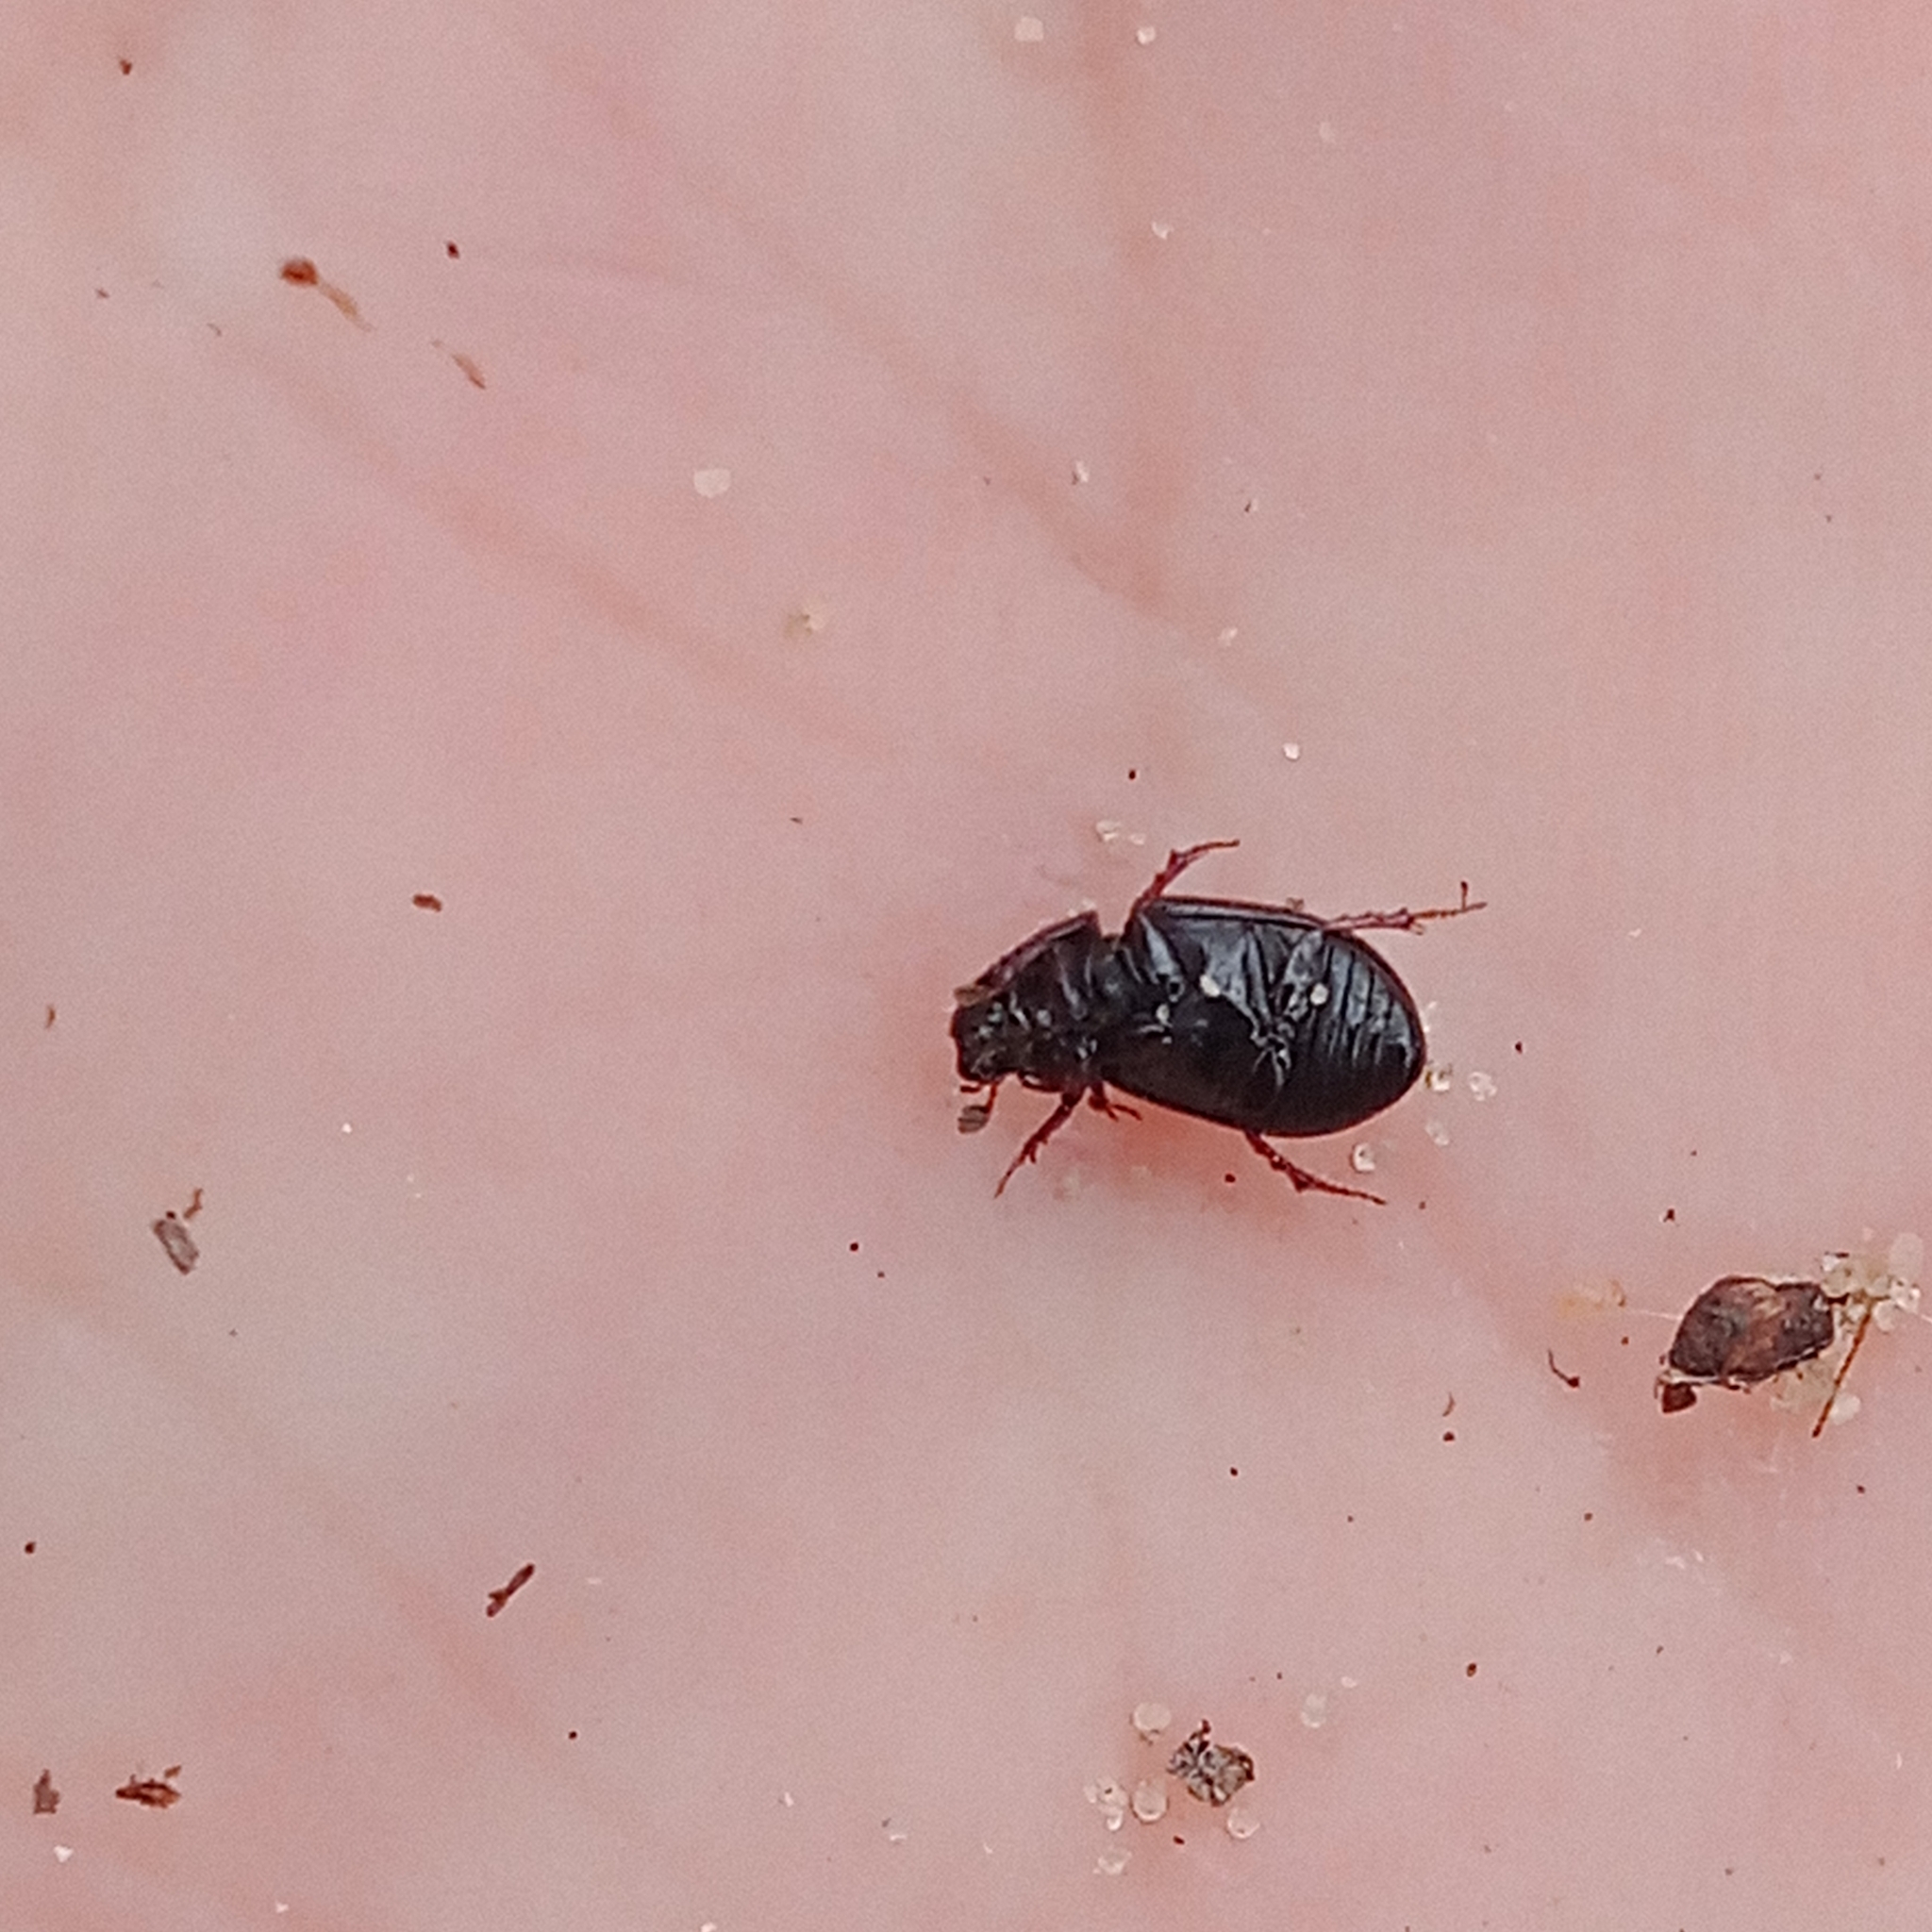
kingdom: Animalia
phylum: Arthropoda
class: Insecta
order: Coleoptera
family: Scarabaeidae
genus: Planolinus
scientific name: Planolinus fasciatus
